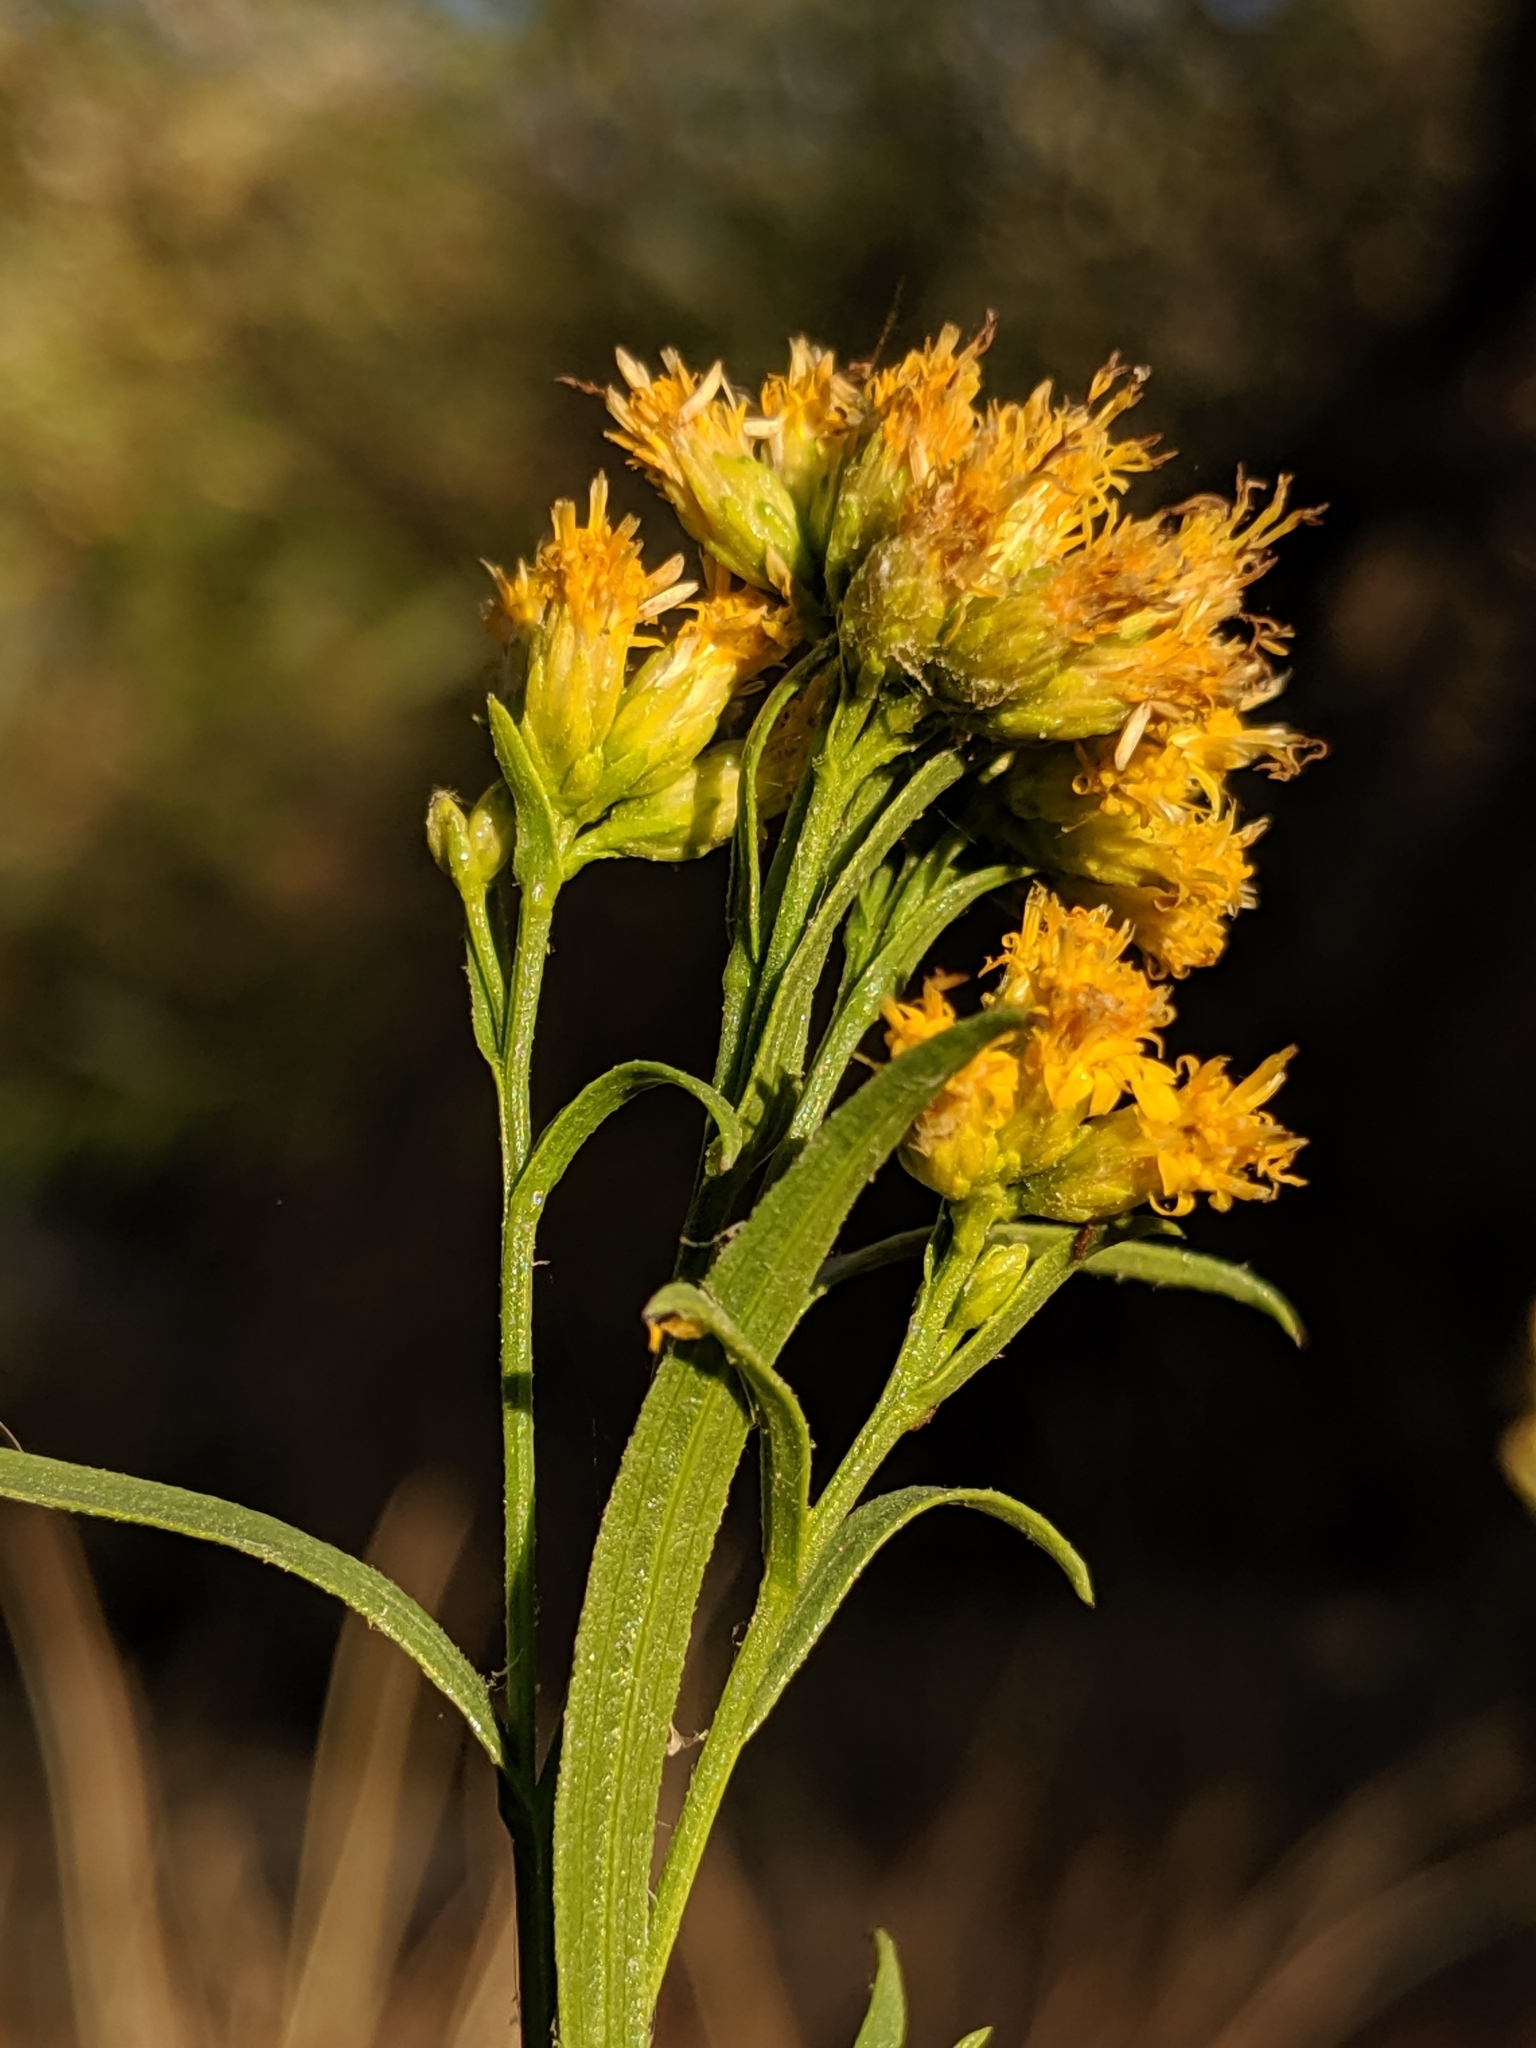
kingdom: Plantae
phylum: Tracheophyta
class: Magnoliopsida
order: Asterales
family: Asteraceae
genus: Euthamia
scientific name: Euthamia occidentalis
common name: Western goldentop
